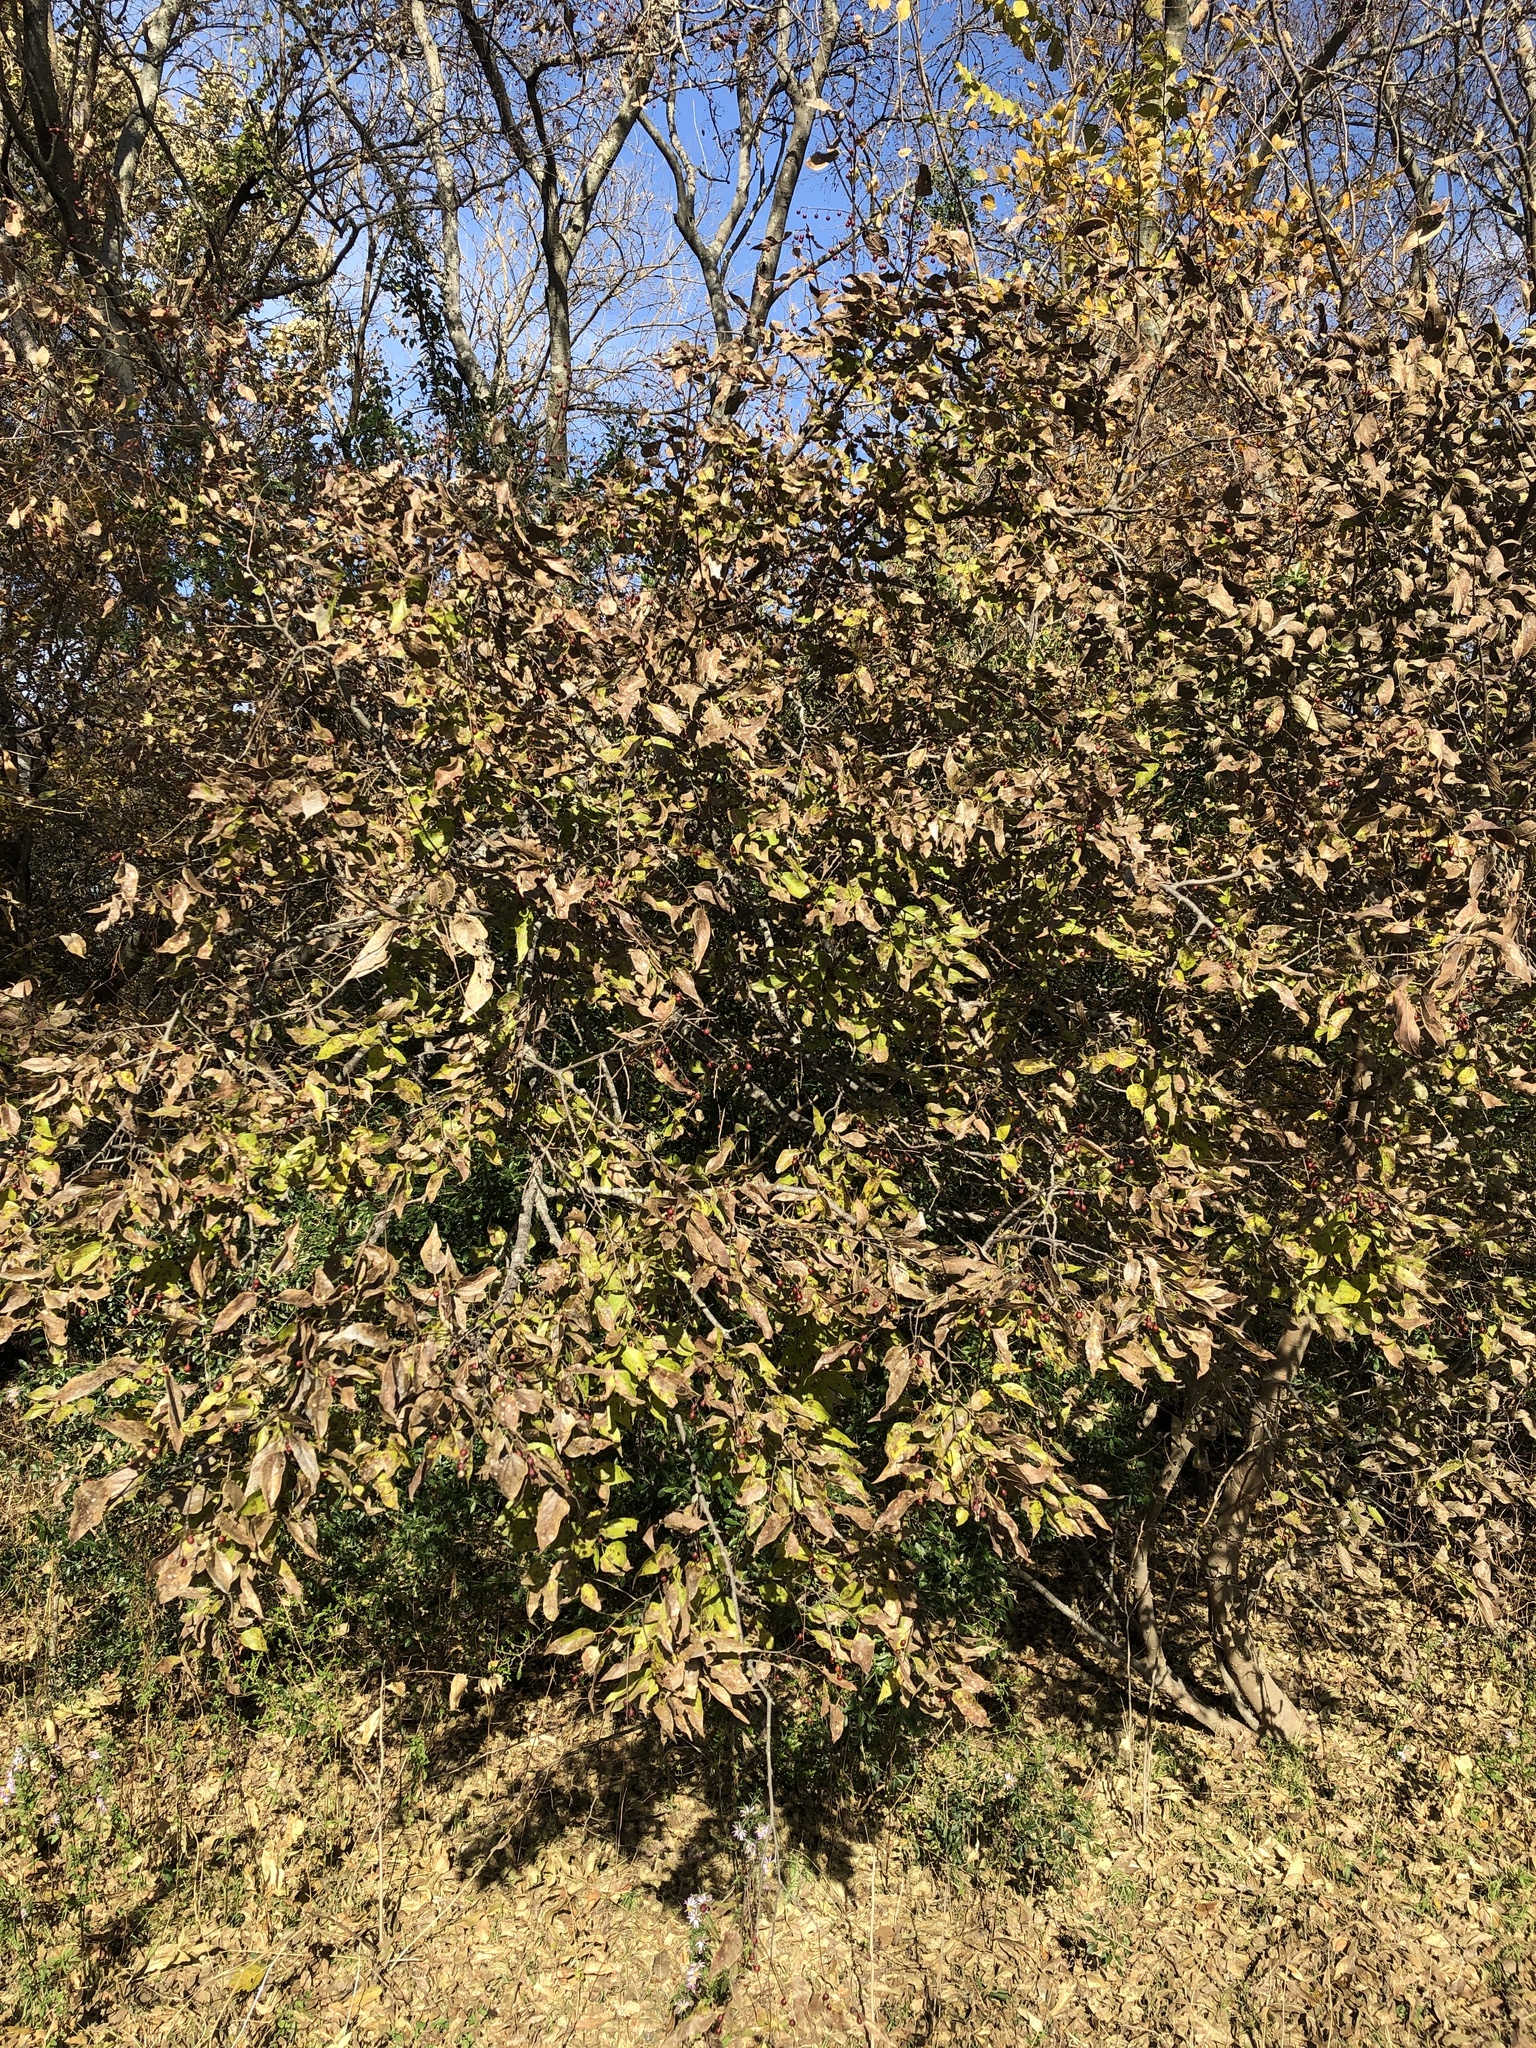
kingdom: Plantae
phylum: Tracheophyta
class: Magnoliopsida
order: Rosales
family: Cannabaceae
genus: Celtis
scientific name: Celtis laevigata
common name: Sugarberry
